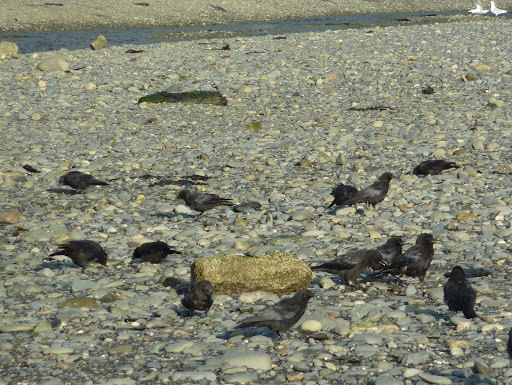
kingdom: Animalia
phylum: Chordata
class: Aves
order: Passeriformes
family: Corvidae
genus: Corvus
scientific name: Corvus brachyrhynchos
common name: American crow
